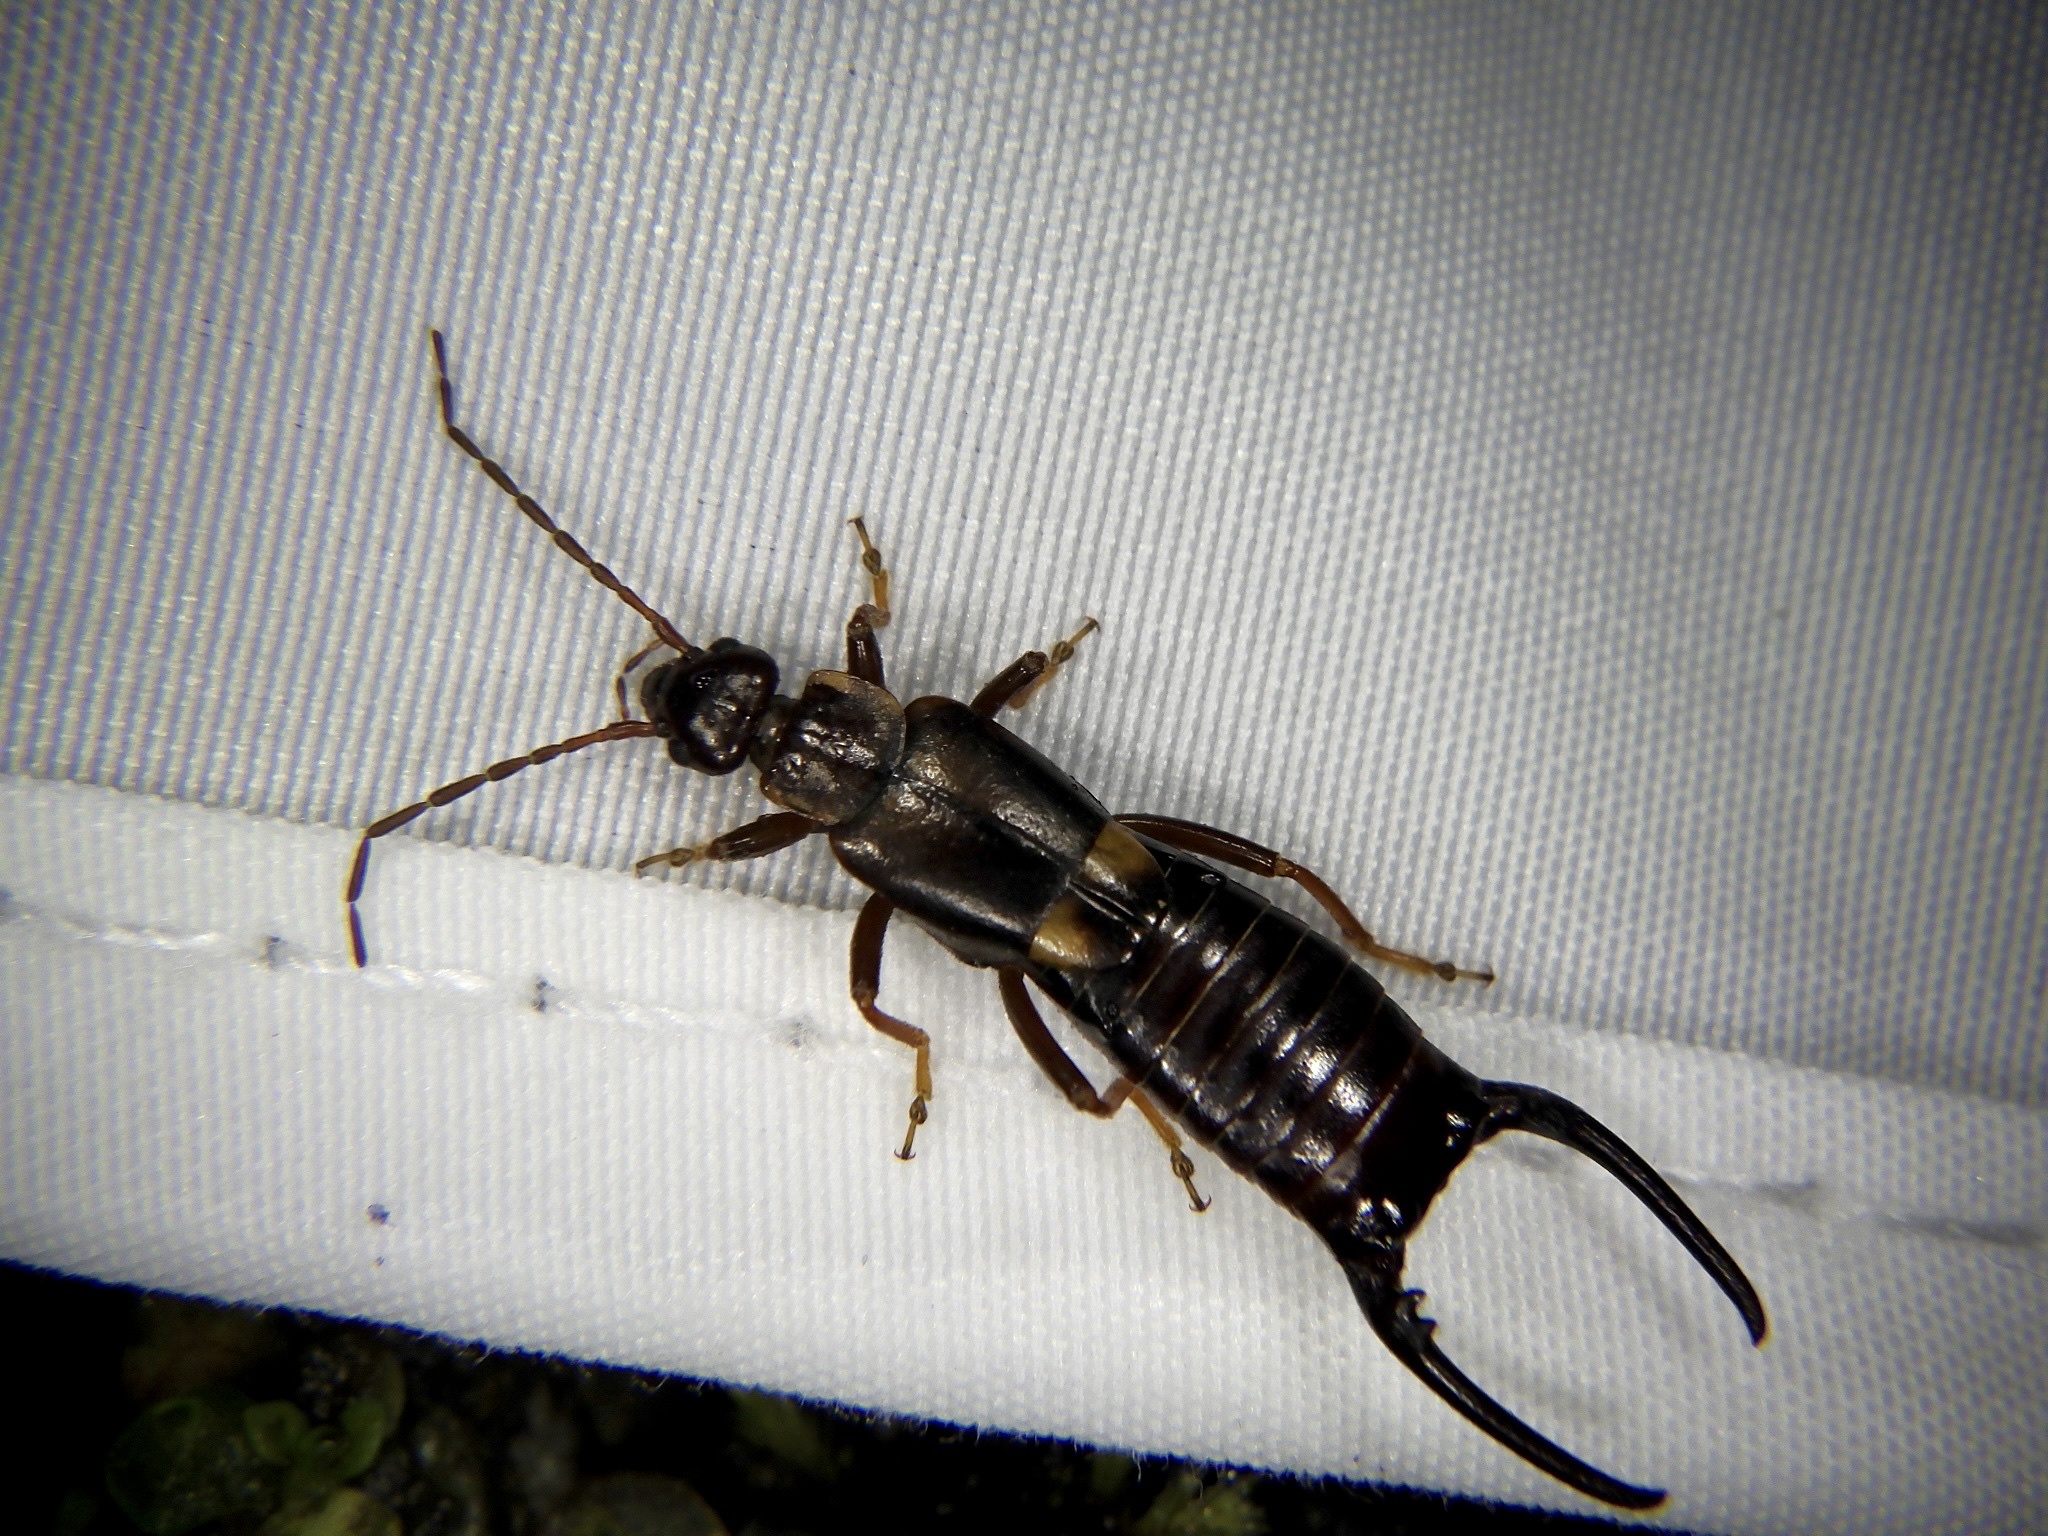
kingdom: Animalia
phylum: Arthropoda
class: Insecta
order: Dermaptera
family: Forficulidae
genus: Anechura
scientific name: Anechura harmandi
